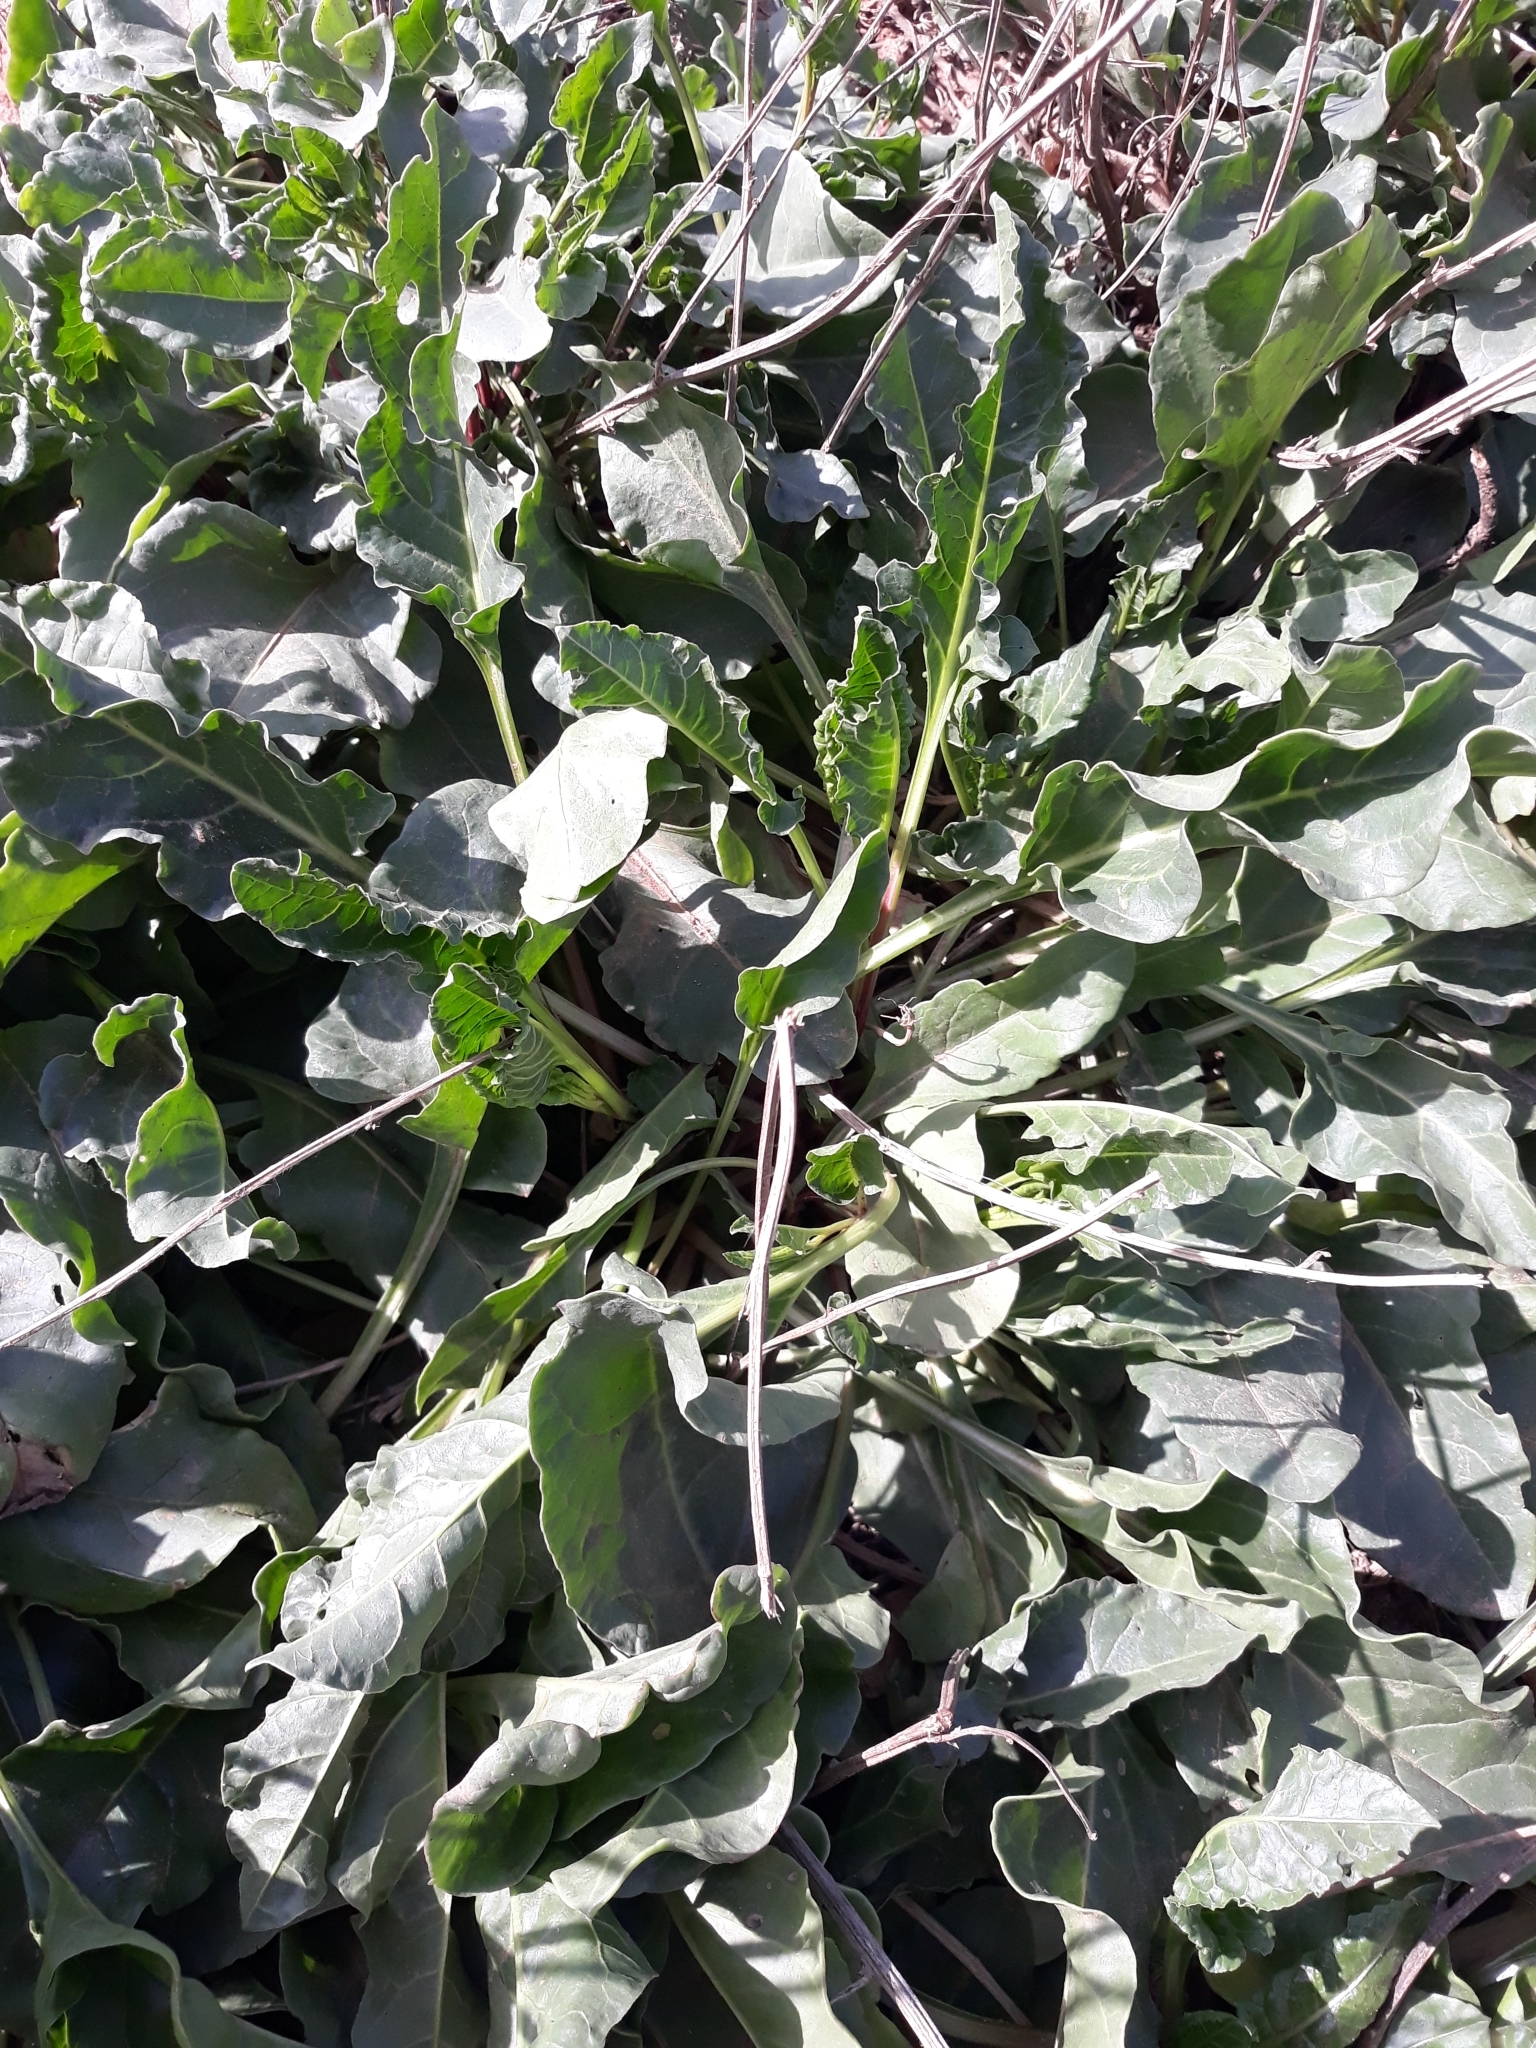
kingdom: Plantae
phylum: Tracheophyta
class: Magnoliopsida
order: Caryophyllales
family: Amaranthaceae
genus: Beta
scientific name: Beta vulgaris
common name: Beet
